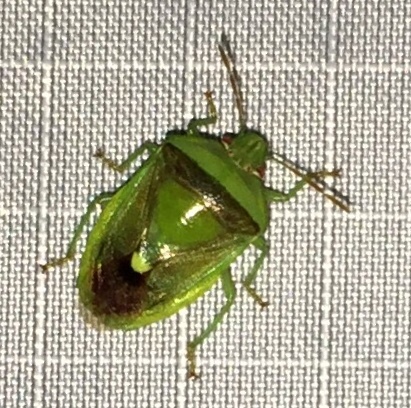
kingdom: Animalia
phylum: Arthropoda
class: Insecta
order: Hemiptera
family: Pentatomidae
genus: Banasa
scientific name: Banasa dimidiata
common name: Green burgundy stink bug
